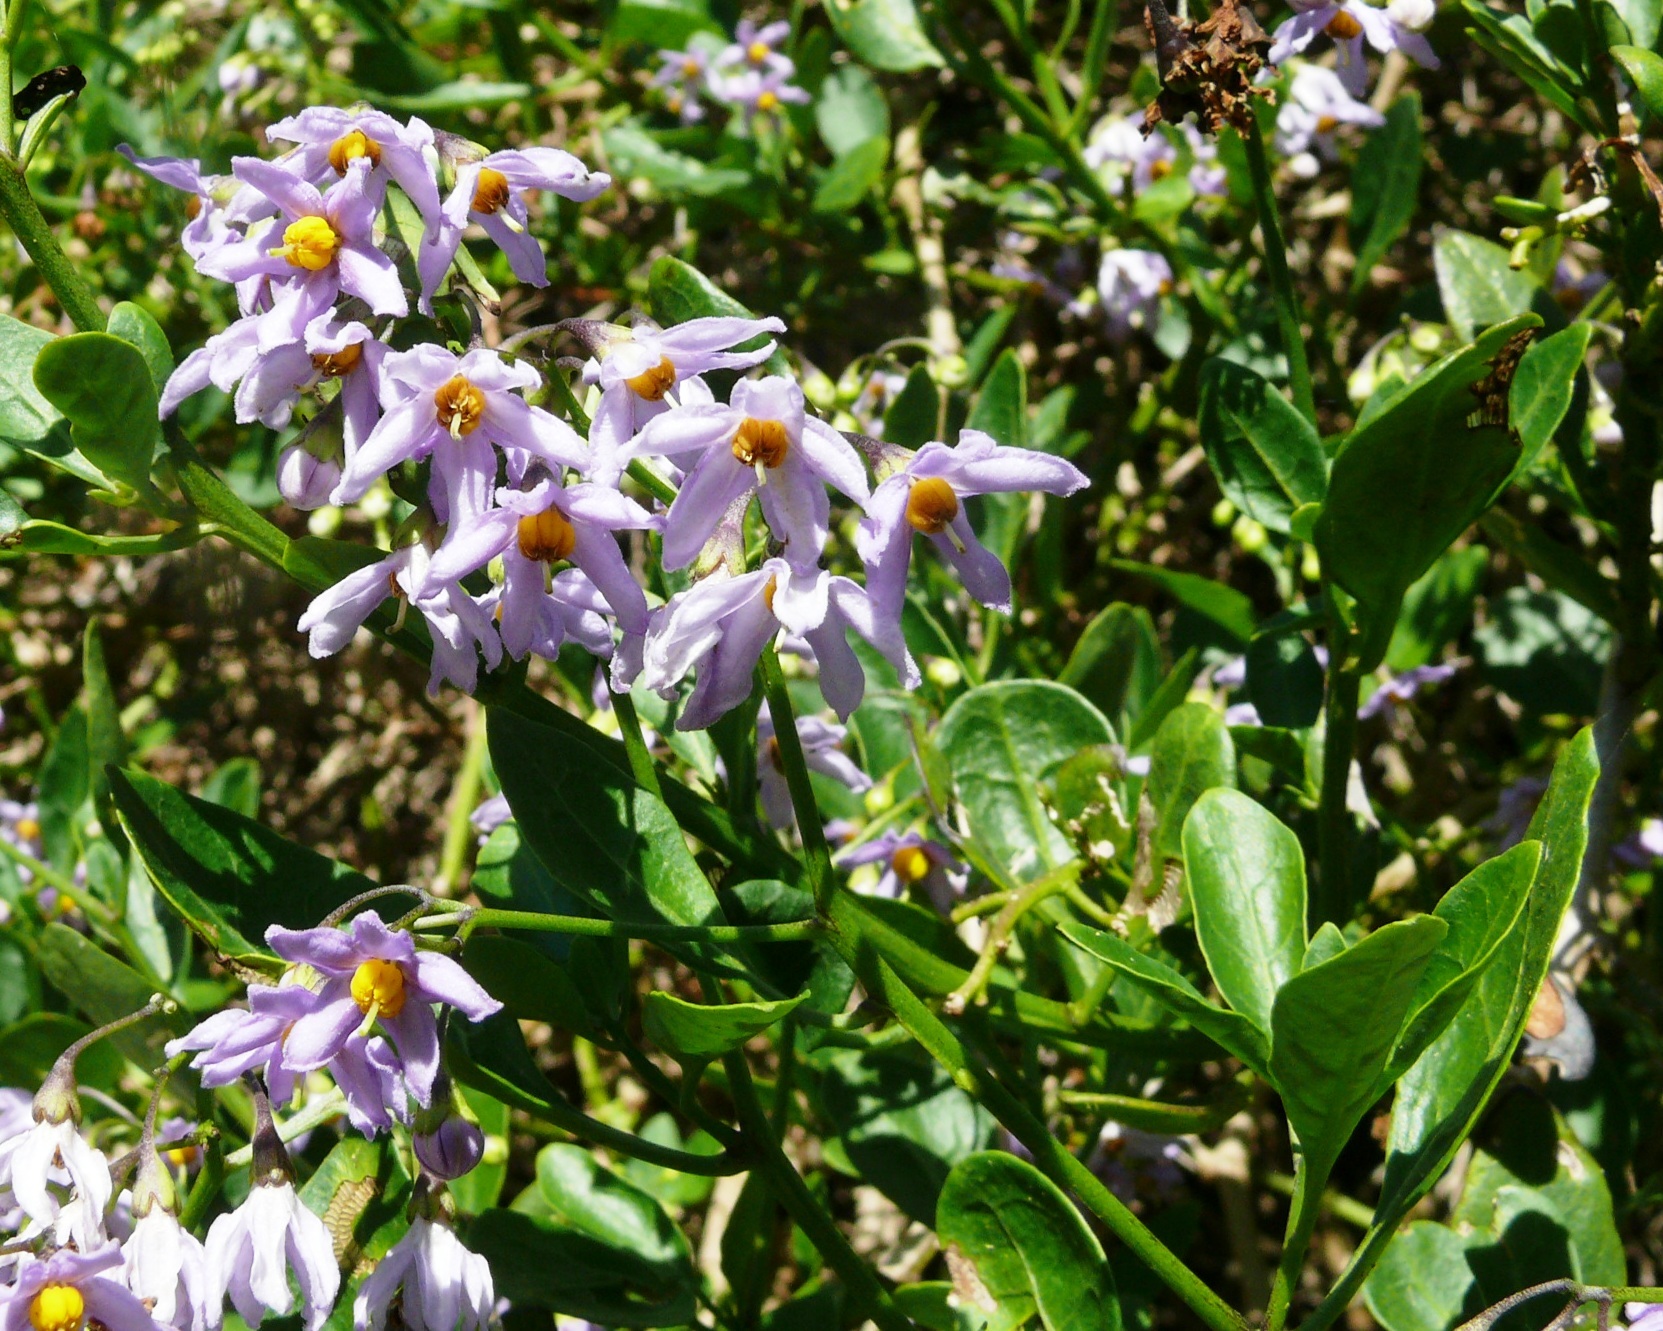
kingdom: Plantae
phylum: Tracheophyta
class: Magnoliopsida
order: Solanales
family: Solanaceae
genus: Solanum
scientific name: Solanum africanum
